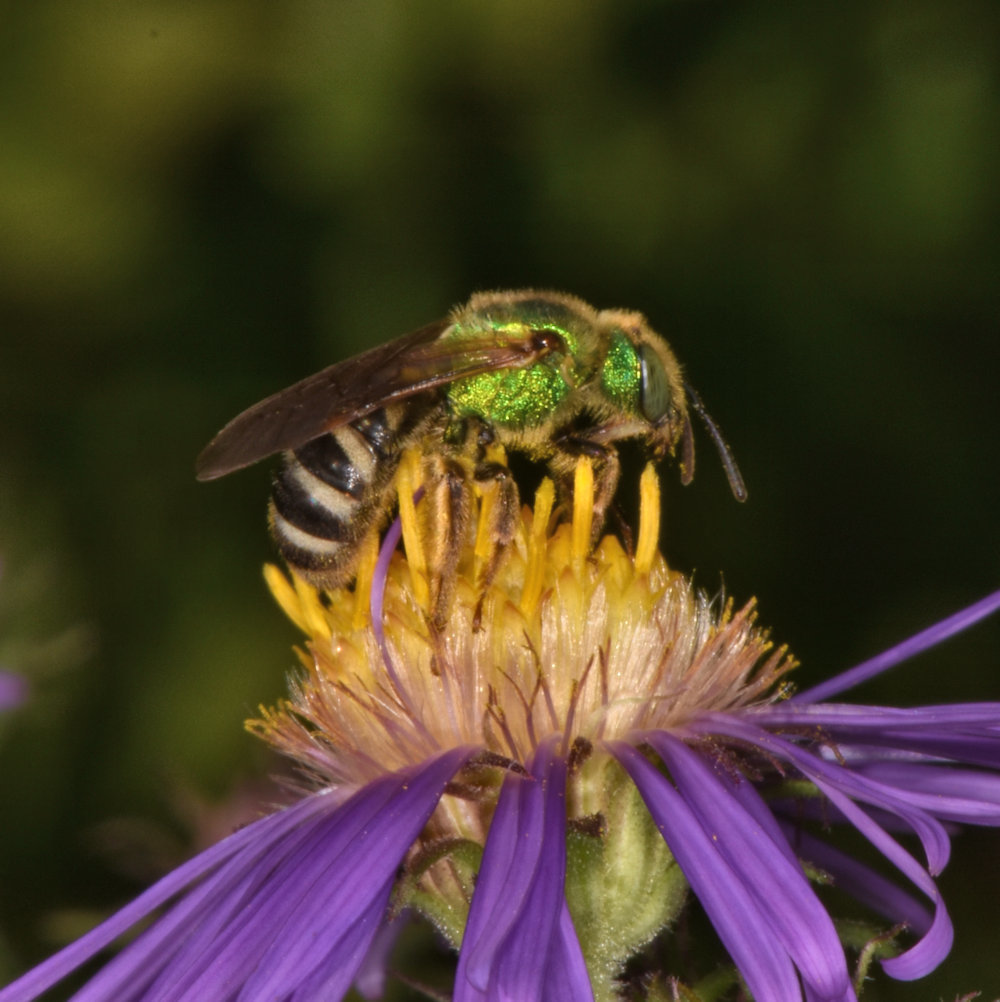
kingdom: Animalia
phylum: Arthropoda
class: Insecta
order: Hymenoptera
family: Halictidae
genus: Agapostemon
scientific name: Agapostemon virescens
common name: Bicolored striped sweat bee
